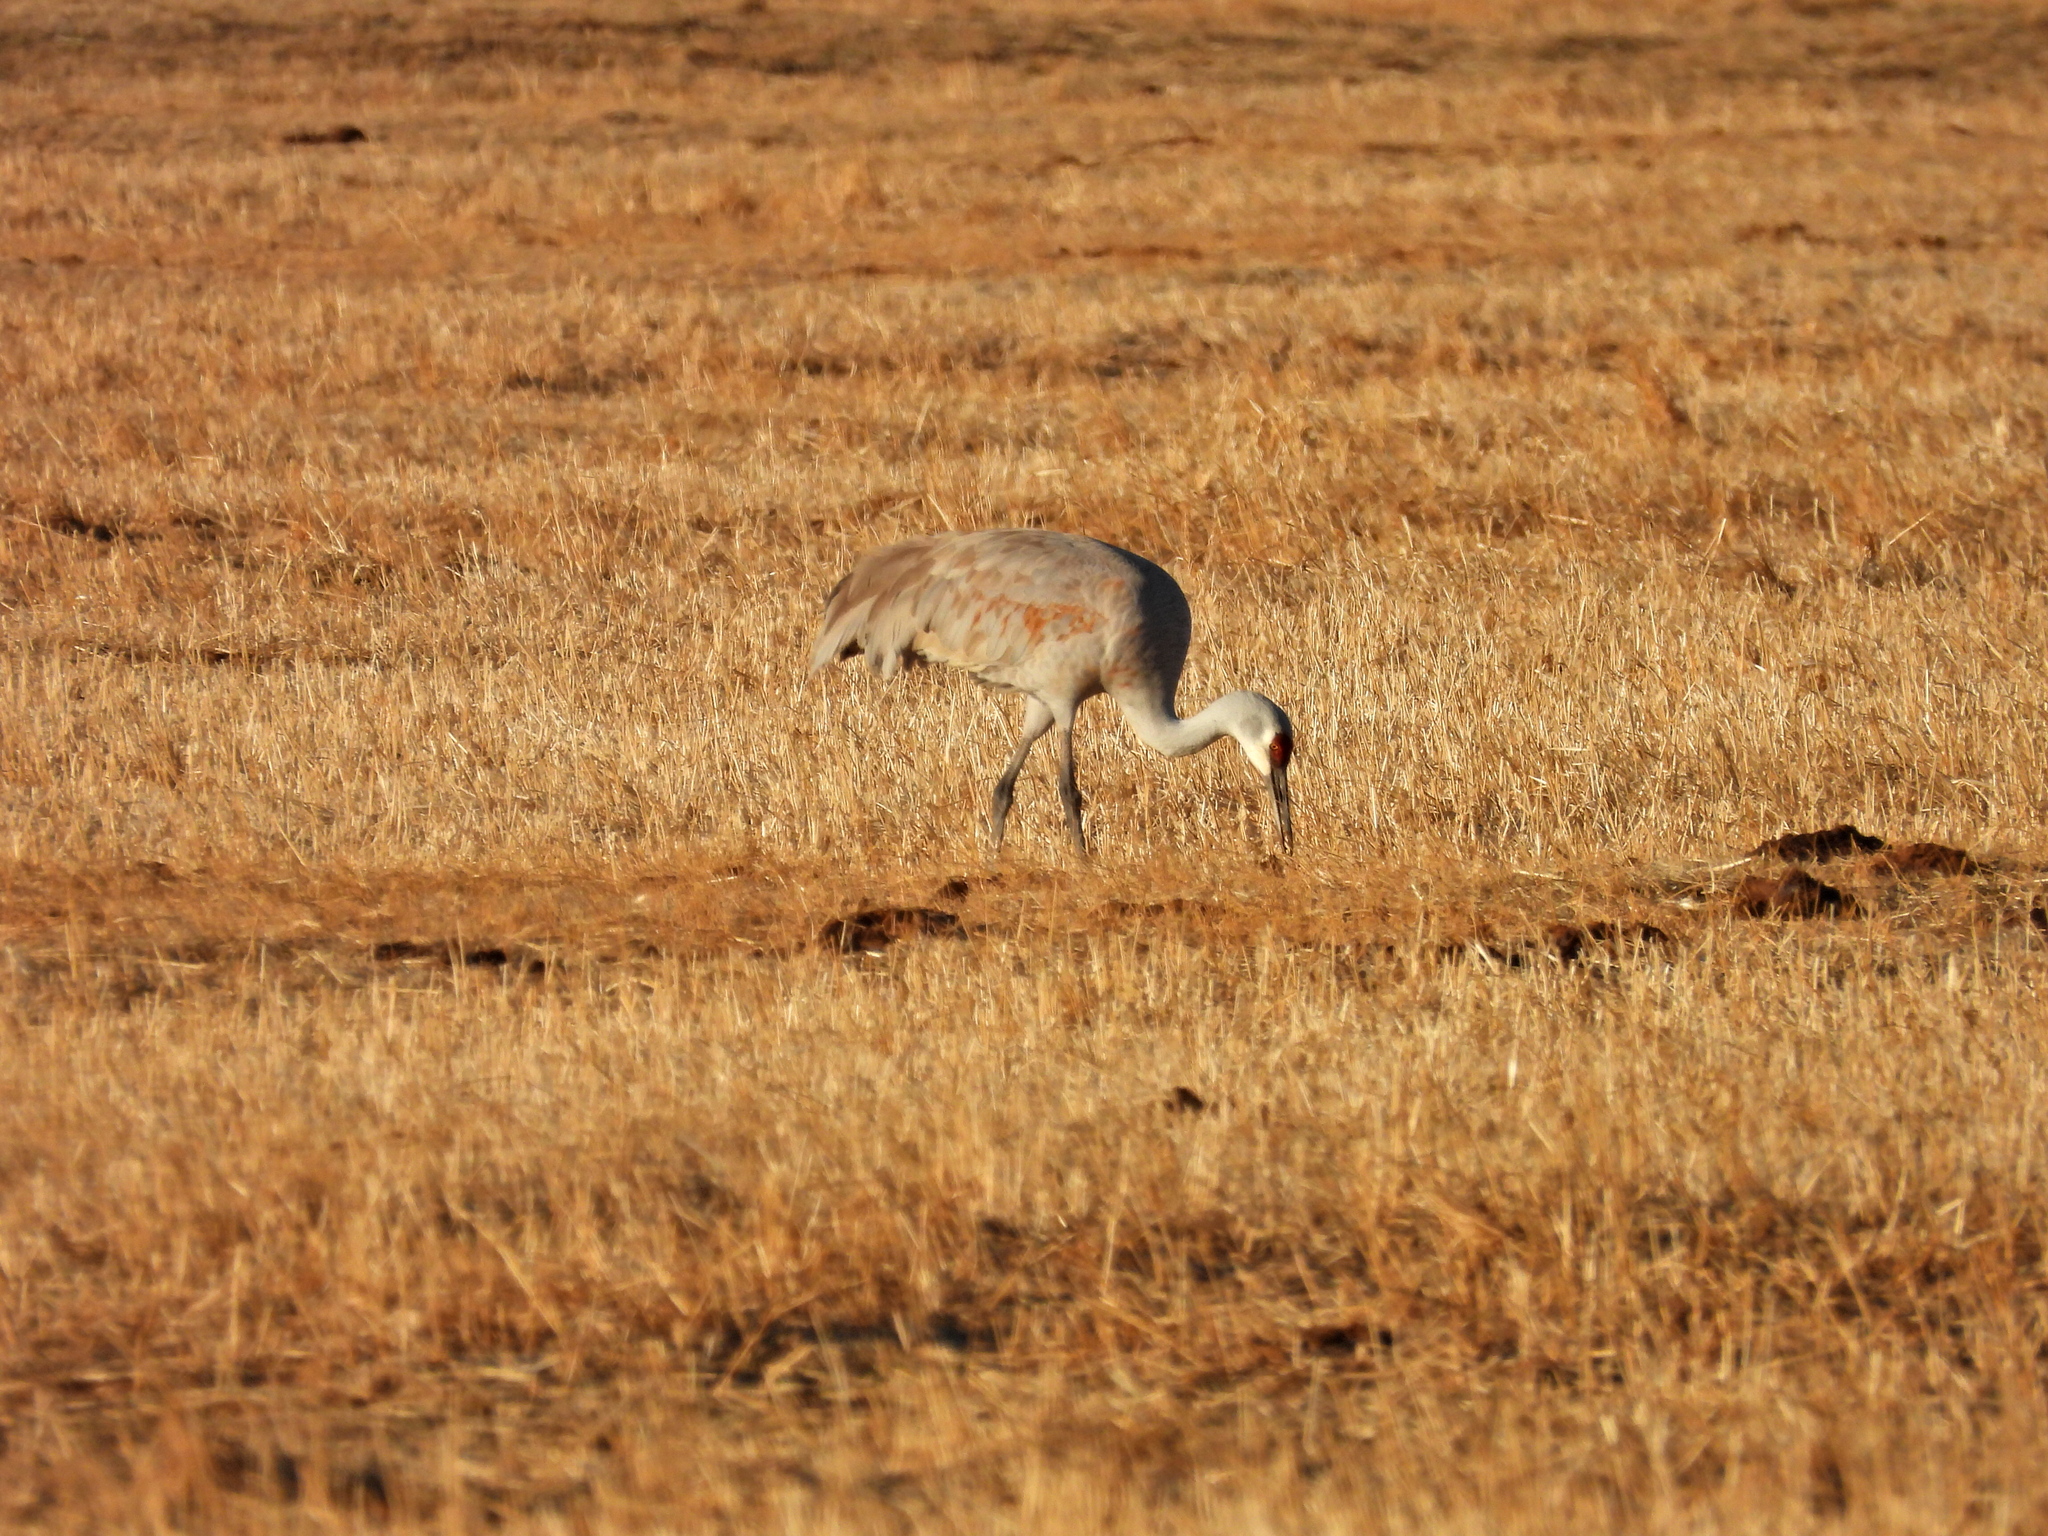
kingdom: Animalia
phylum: Chordata
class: Aves
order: Gruiformes
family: Gruidae
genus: Grus
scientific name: Grus canadensis
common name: Sandhill crane
